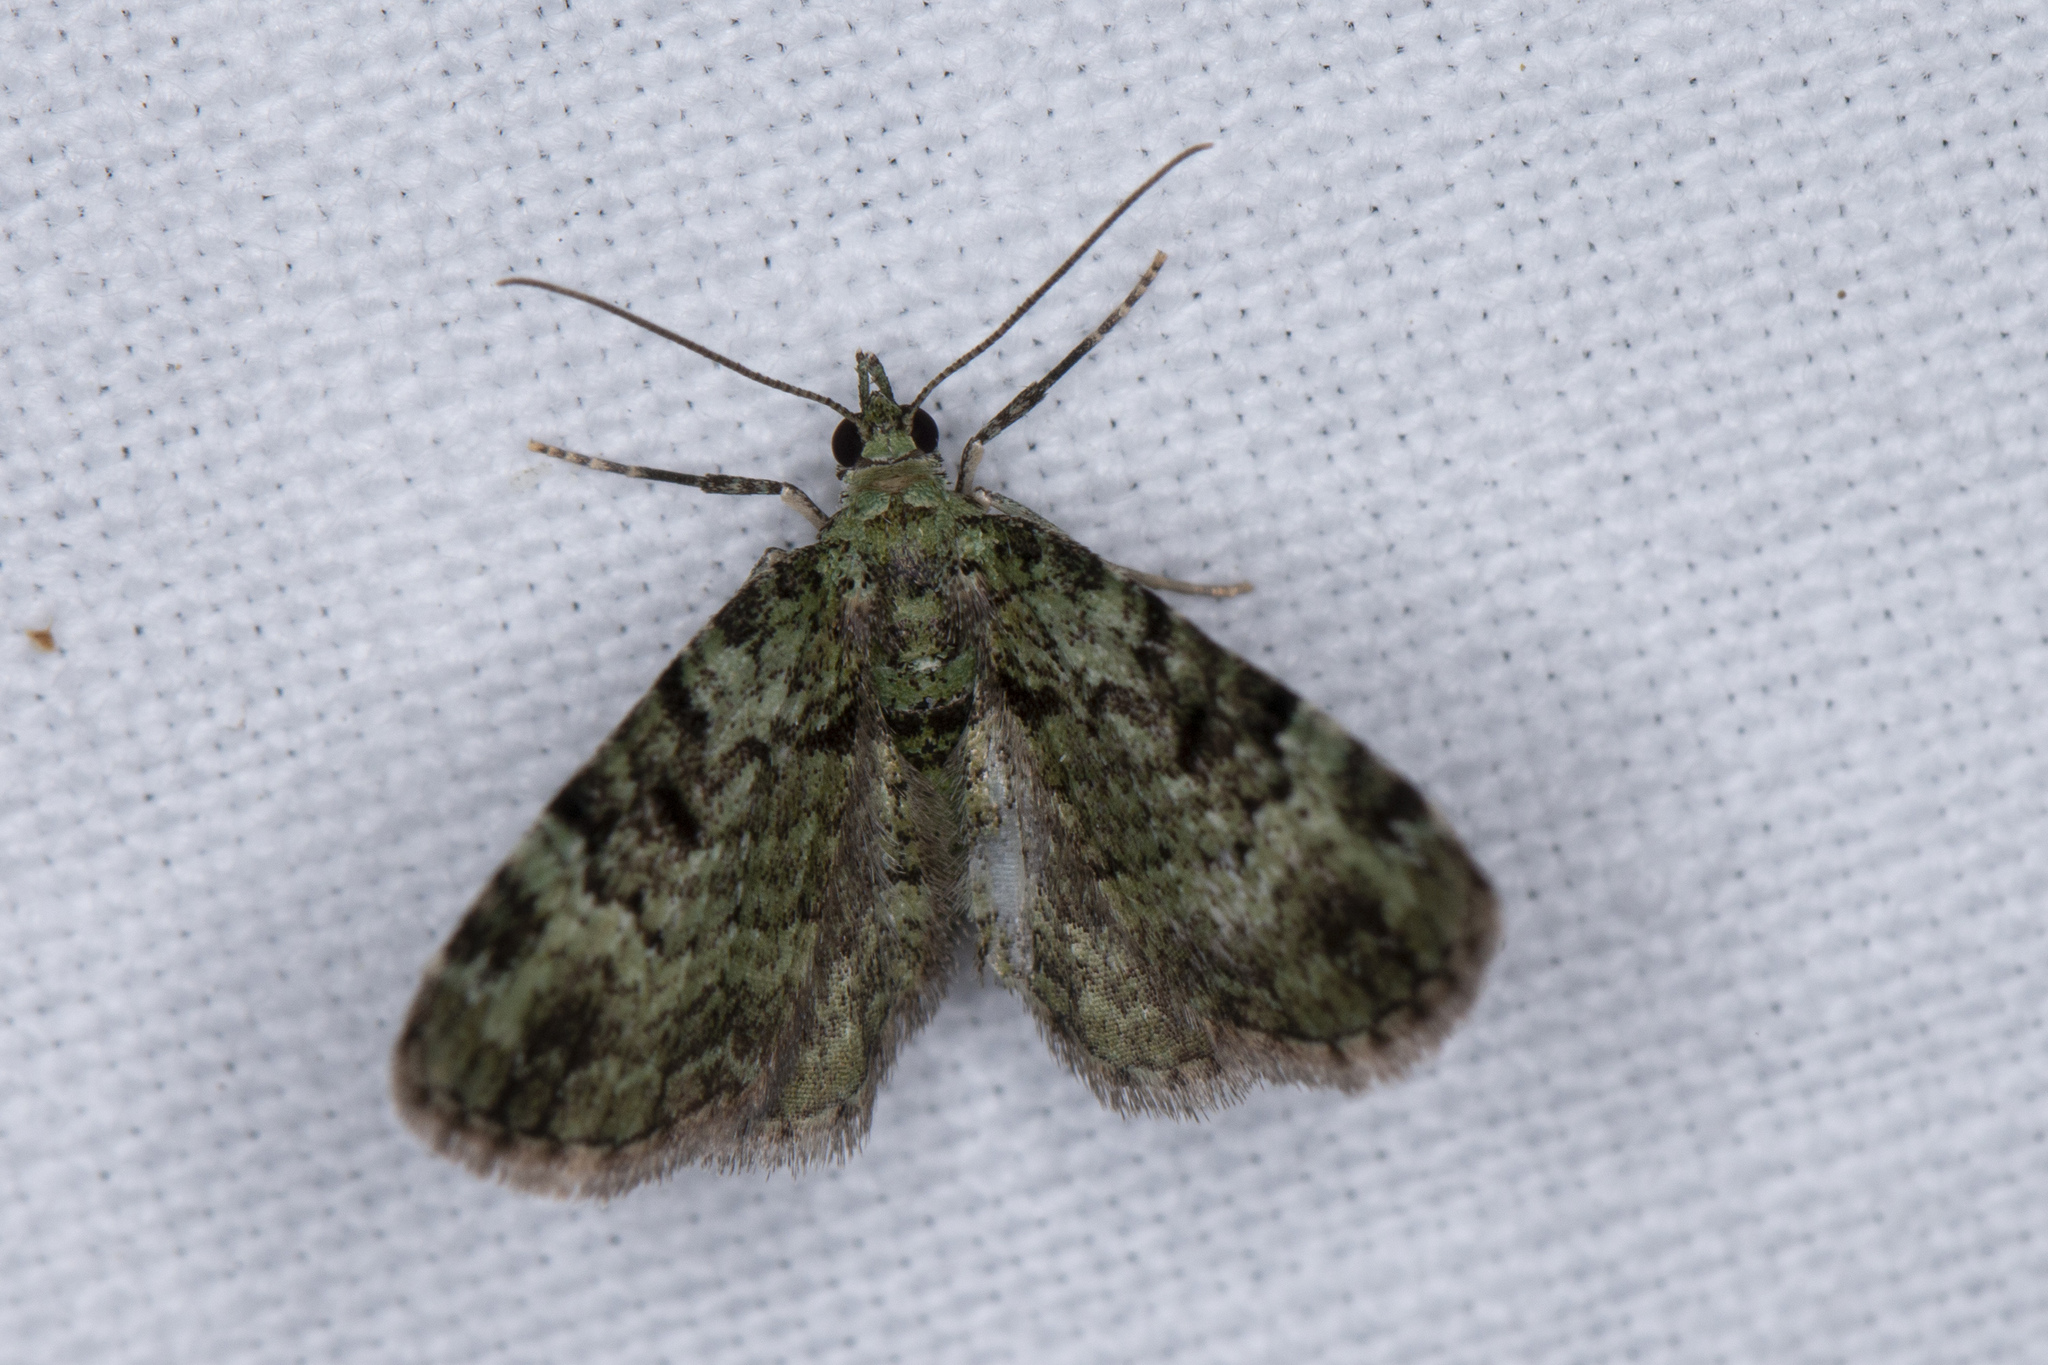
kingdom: Animalia
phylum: Arthropoda
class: Insecta
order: Lepidoptera
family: Geometridae
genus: Pasiphila
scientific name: Pasiphila rectangulata
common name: Green pug
